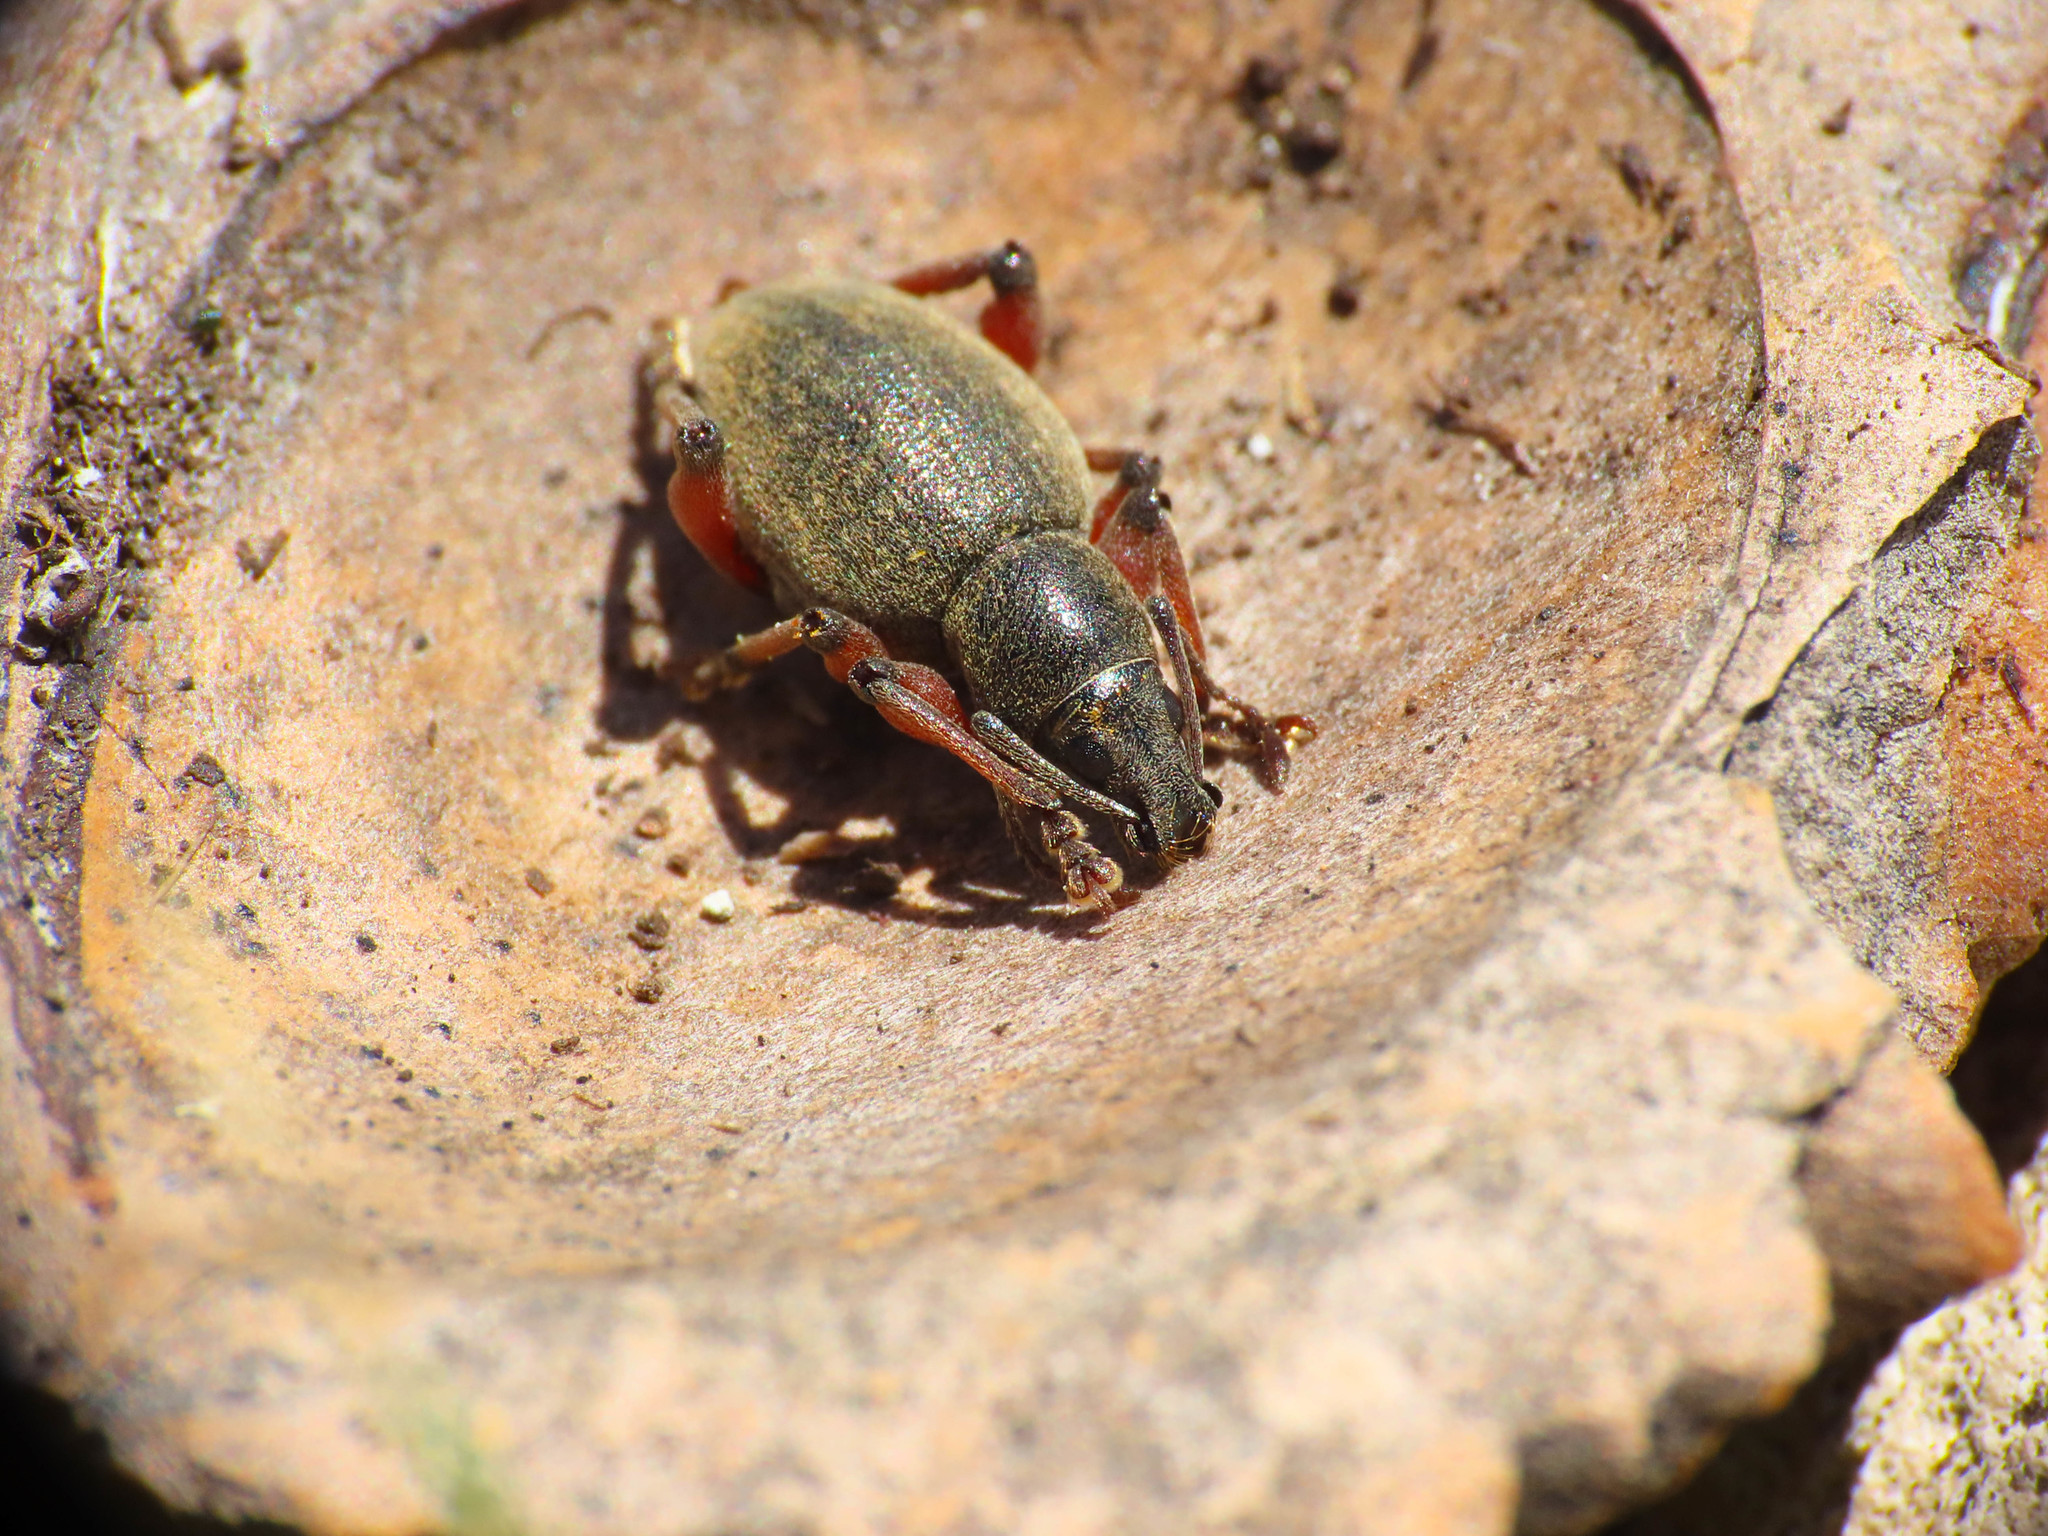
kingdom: Animalia
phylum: Arthropoda
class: Insecta
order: Coleoptera
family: Curculionidae
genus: Dodecastichus
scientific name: Dodecastichus mastix
